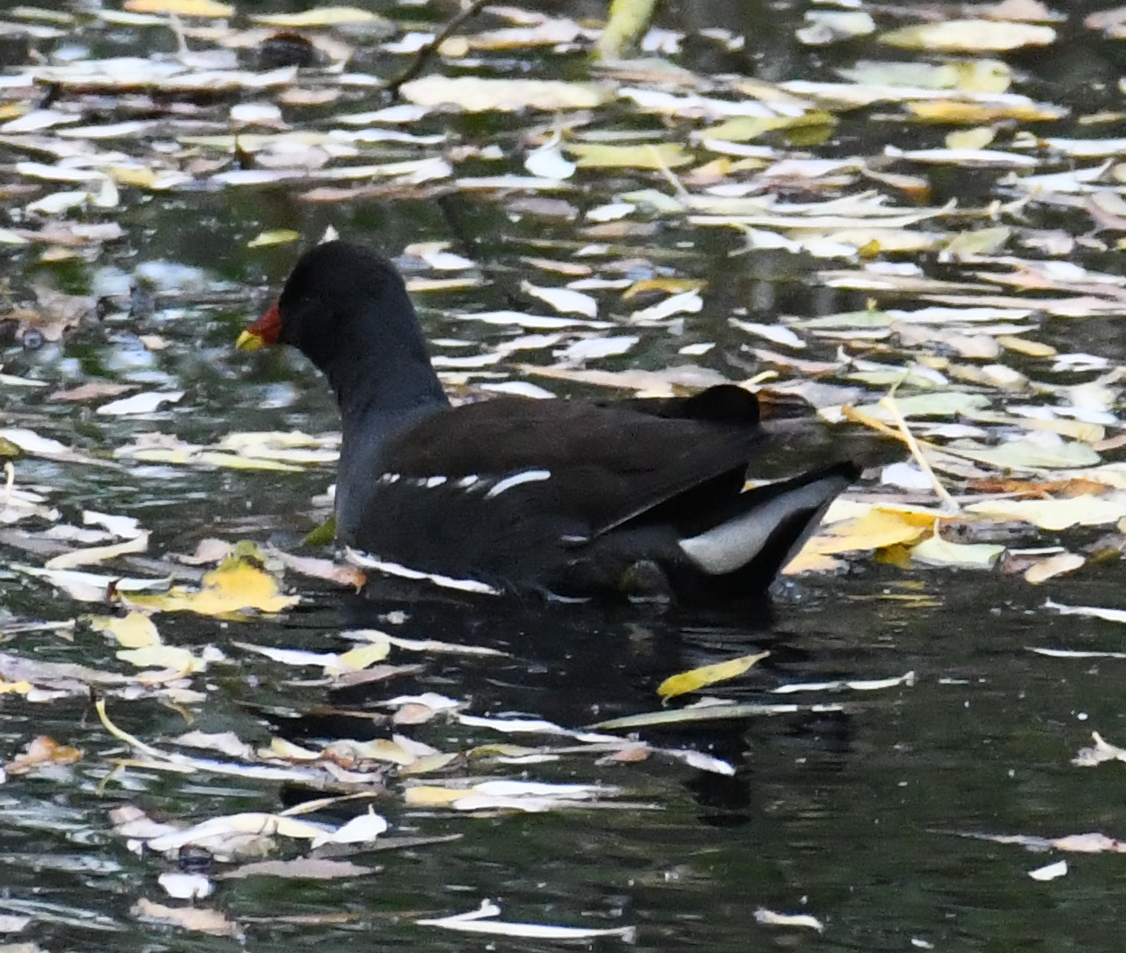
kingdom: Animalia
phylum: Chordata
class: Aves
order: Gruiformes
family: Rallidae
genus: Gallinula
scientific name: Gallinula chloropus
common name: Common moorhen
